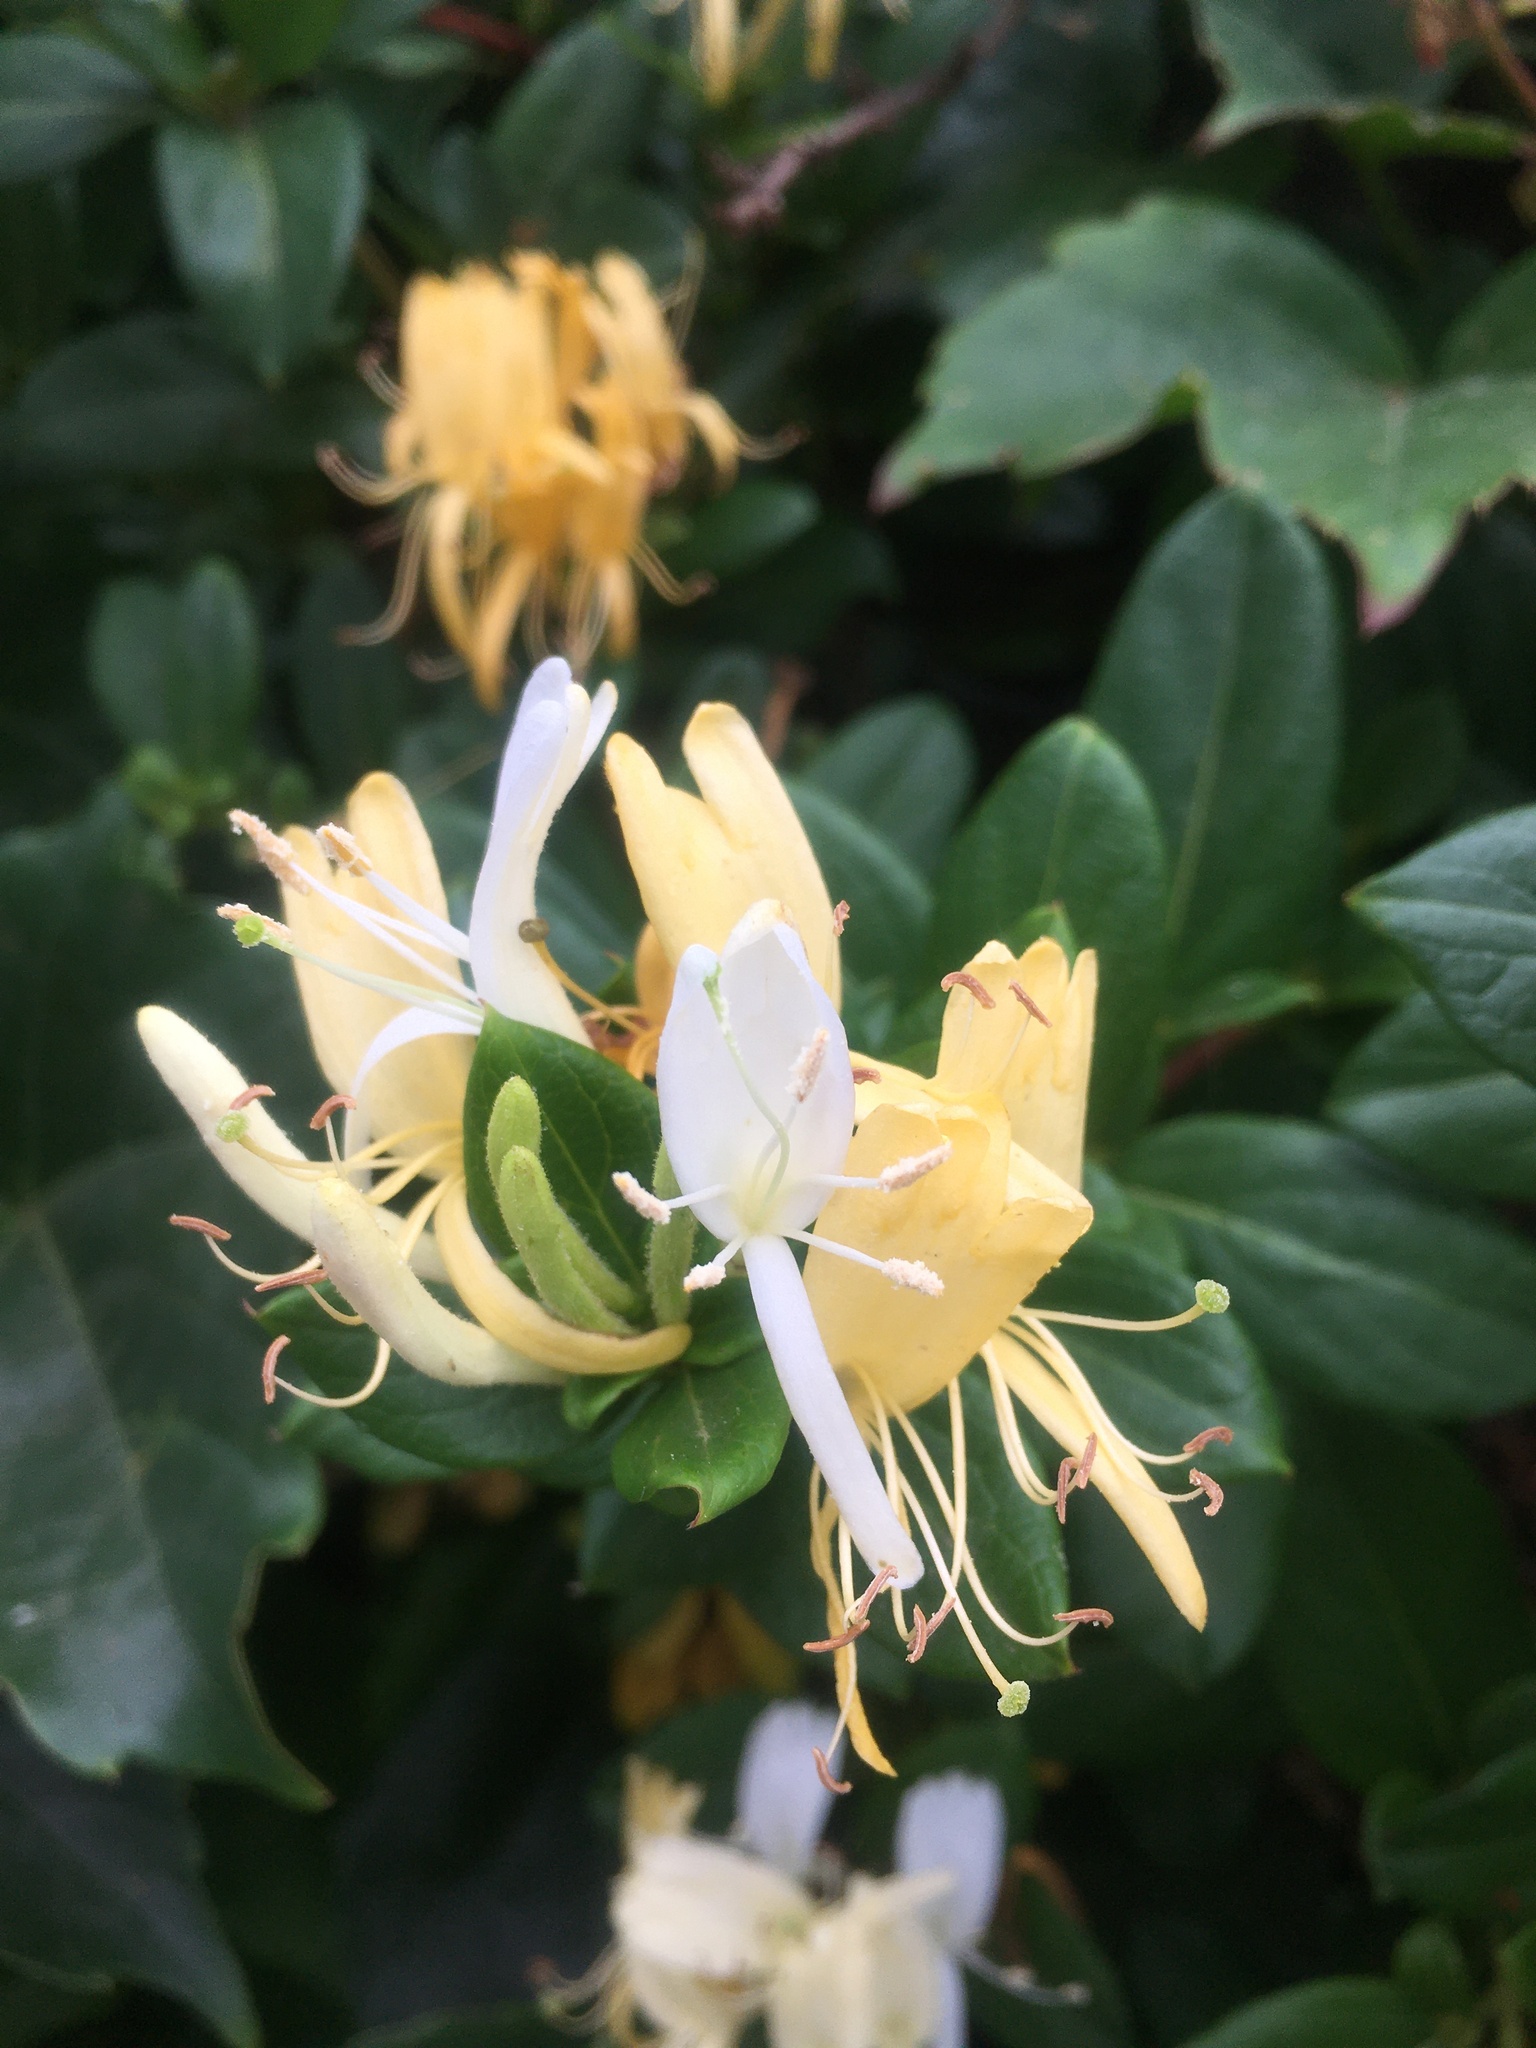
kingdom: Plantae
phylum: Tracheophyta
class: Magnoliopsida
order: Dipsacales
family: Caprifoliaceae
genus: Lonicera
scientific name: Lonicera japonica
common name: Japanese honeysuckle
